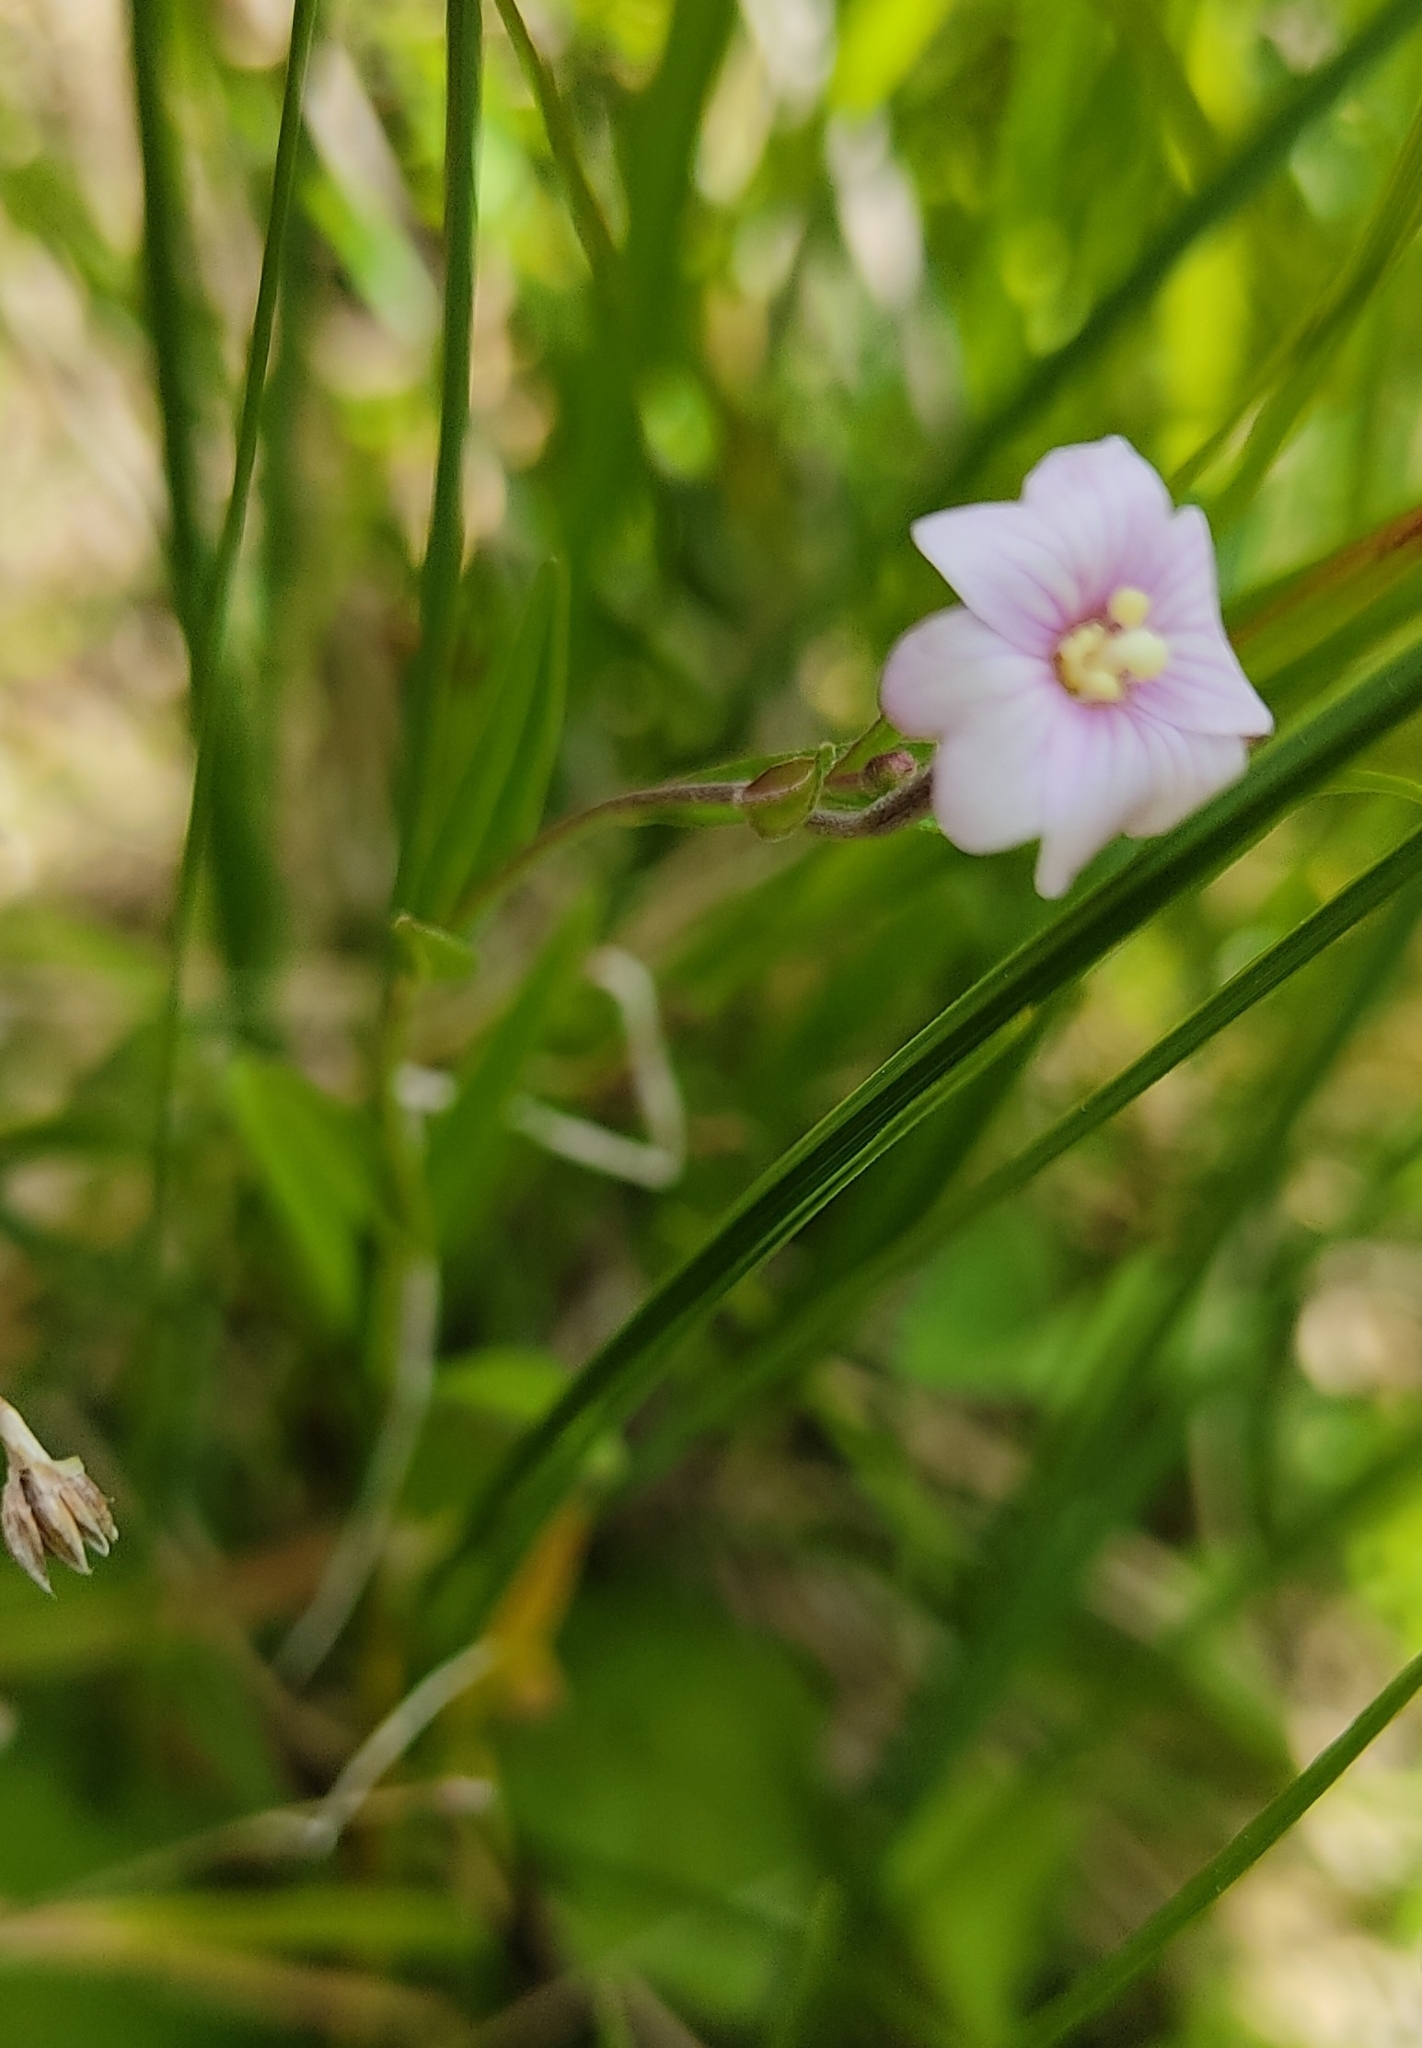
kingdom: Plantae
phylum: Tracheophyta
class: Magnoliopsida
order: Myrtales
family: Onagraceae
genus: Epilobium
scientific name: Epilobium palustre
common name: Marsh willowherb
